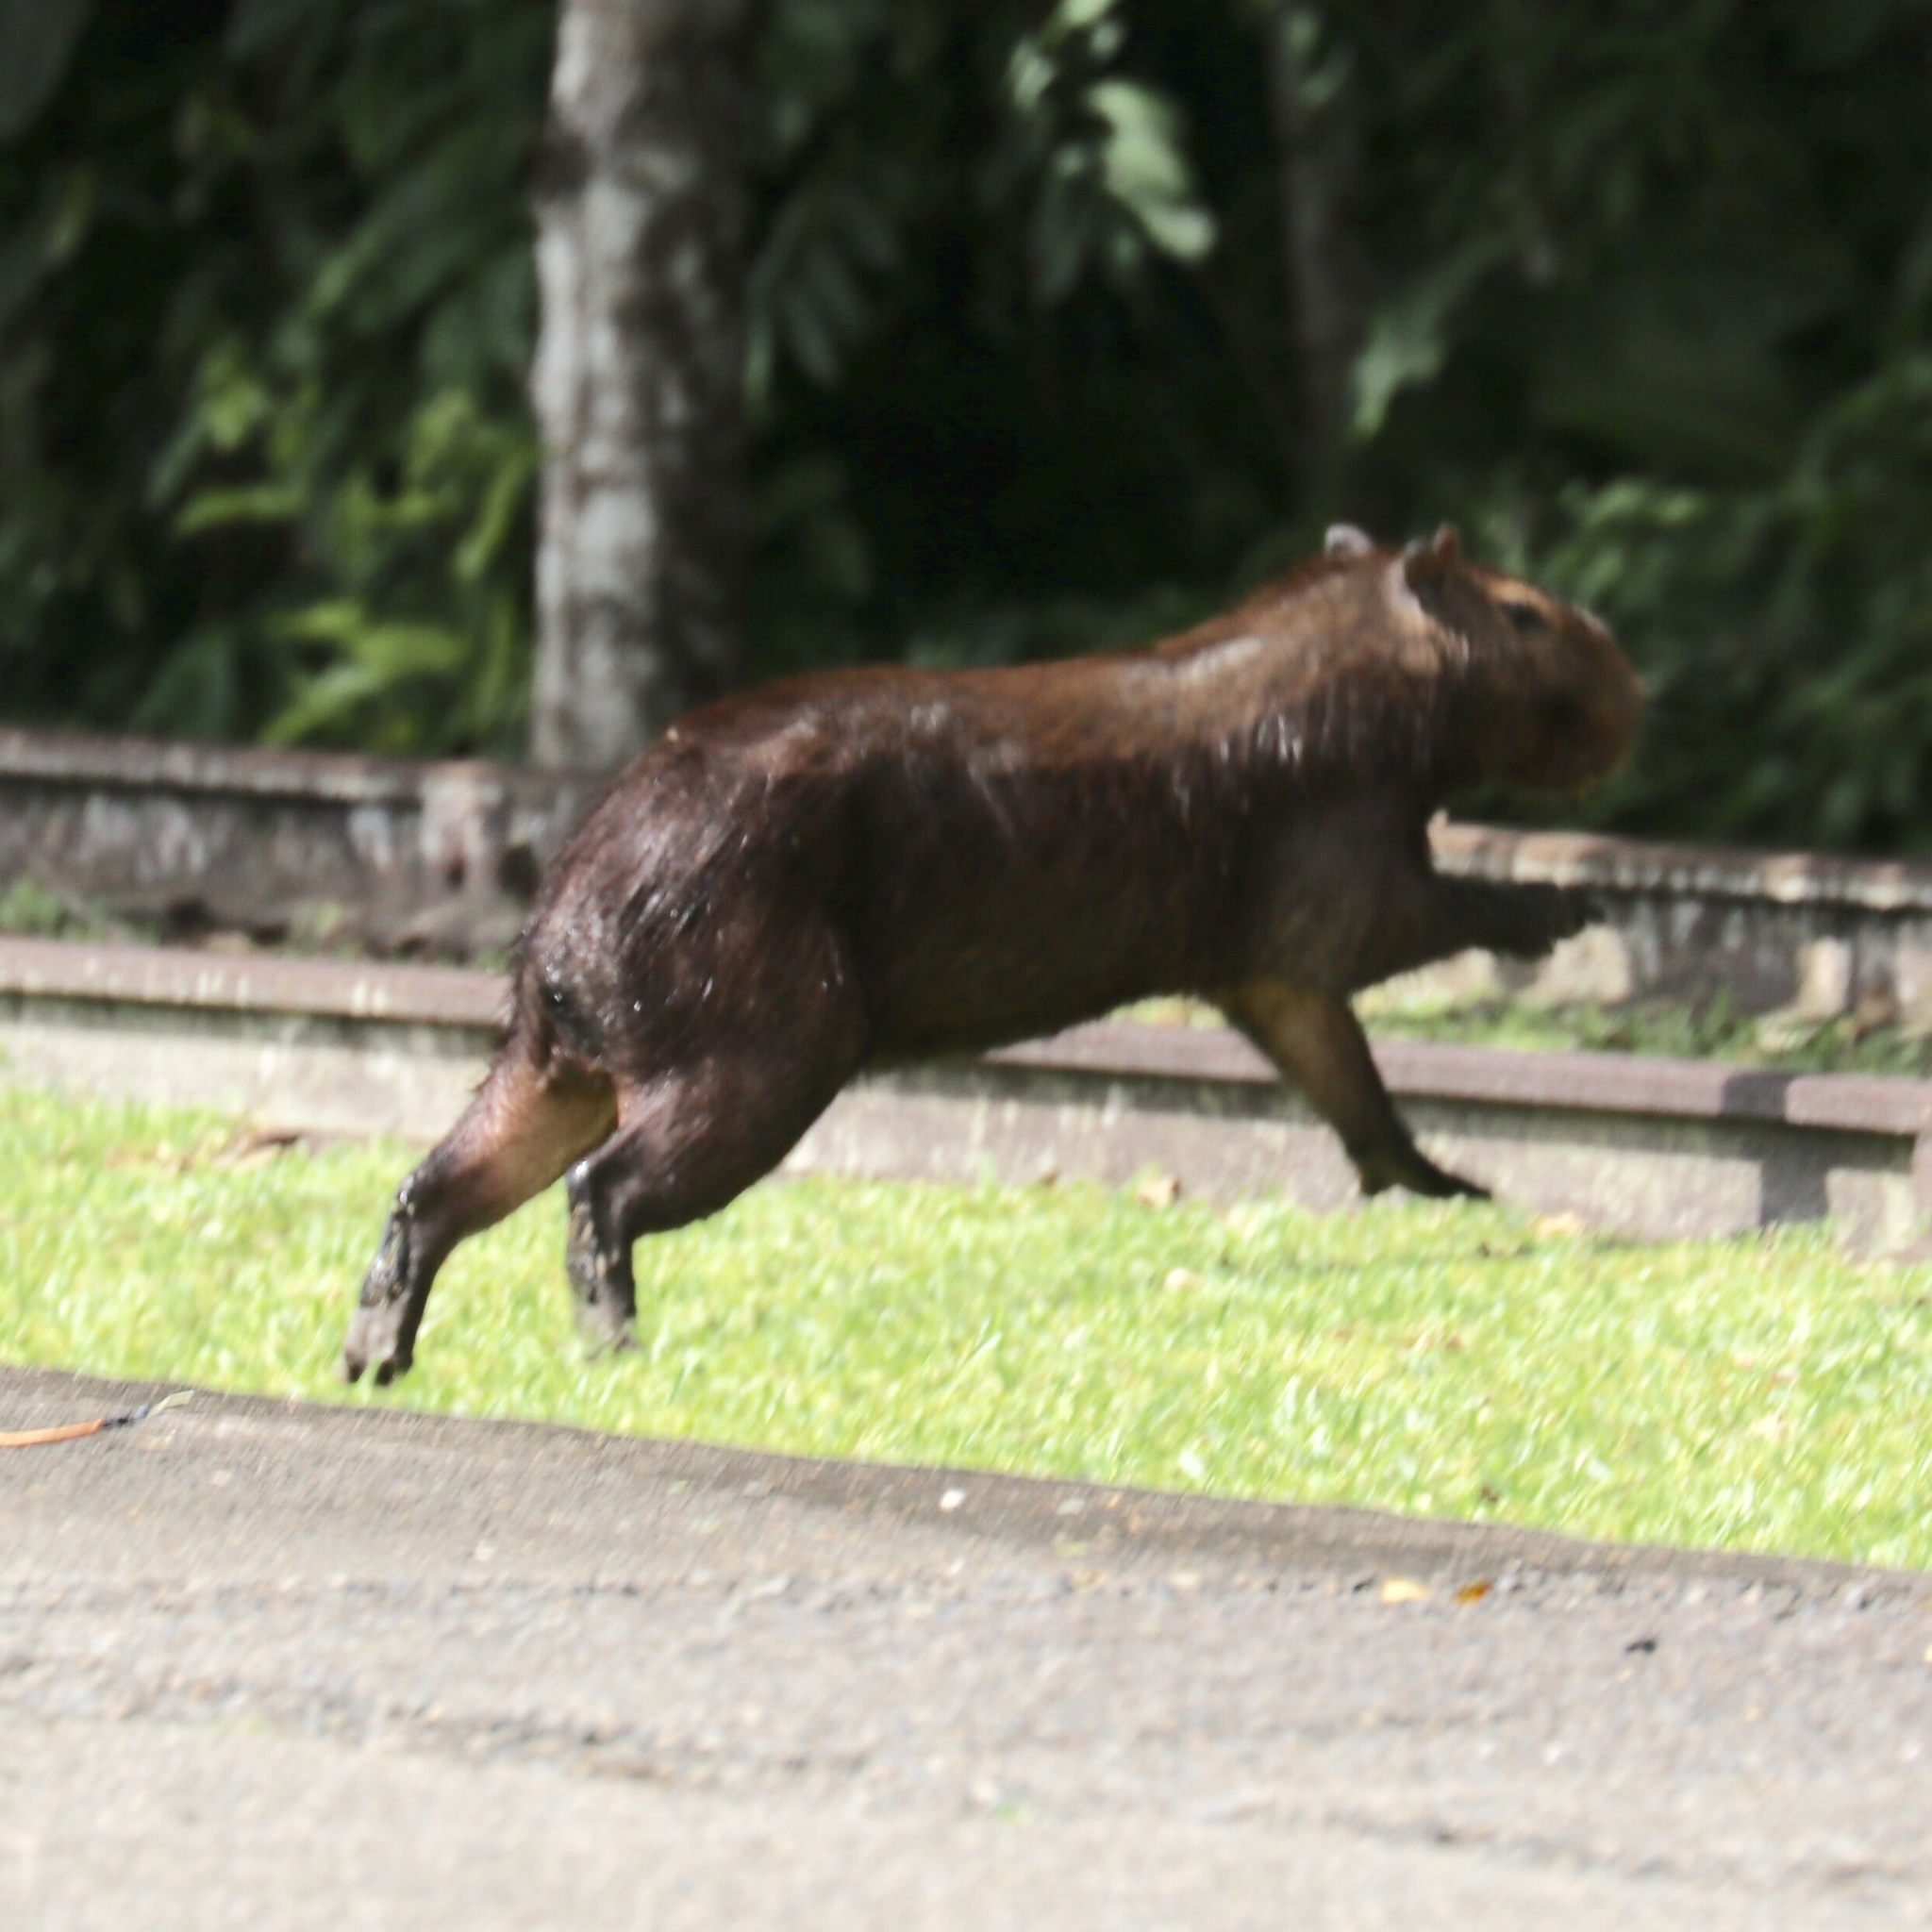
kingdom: Animalia
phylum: Chordata
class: Mammalia
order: Rodentia
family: Caviidae
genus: Hydrochoerus
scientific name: Hydrochoerus isthmius
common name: Lesser capybara
